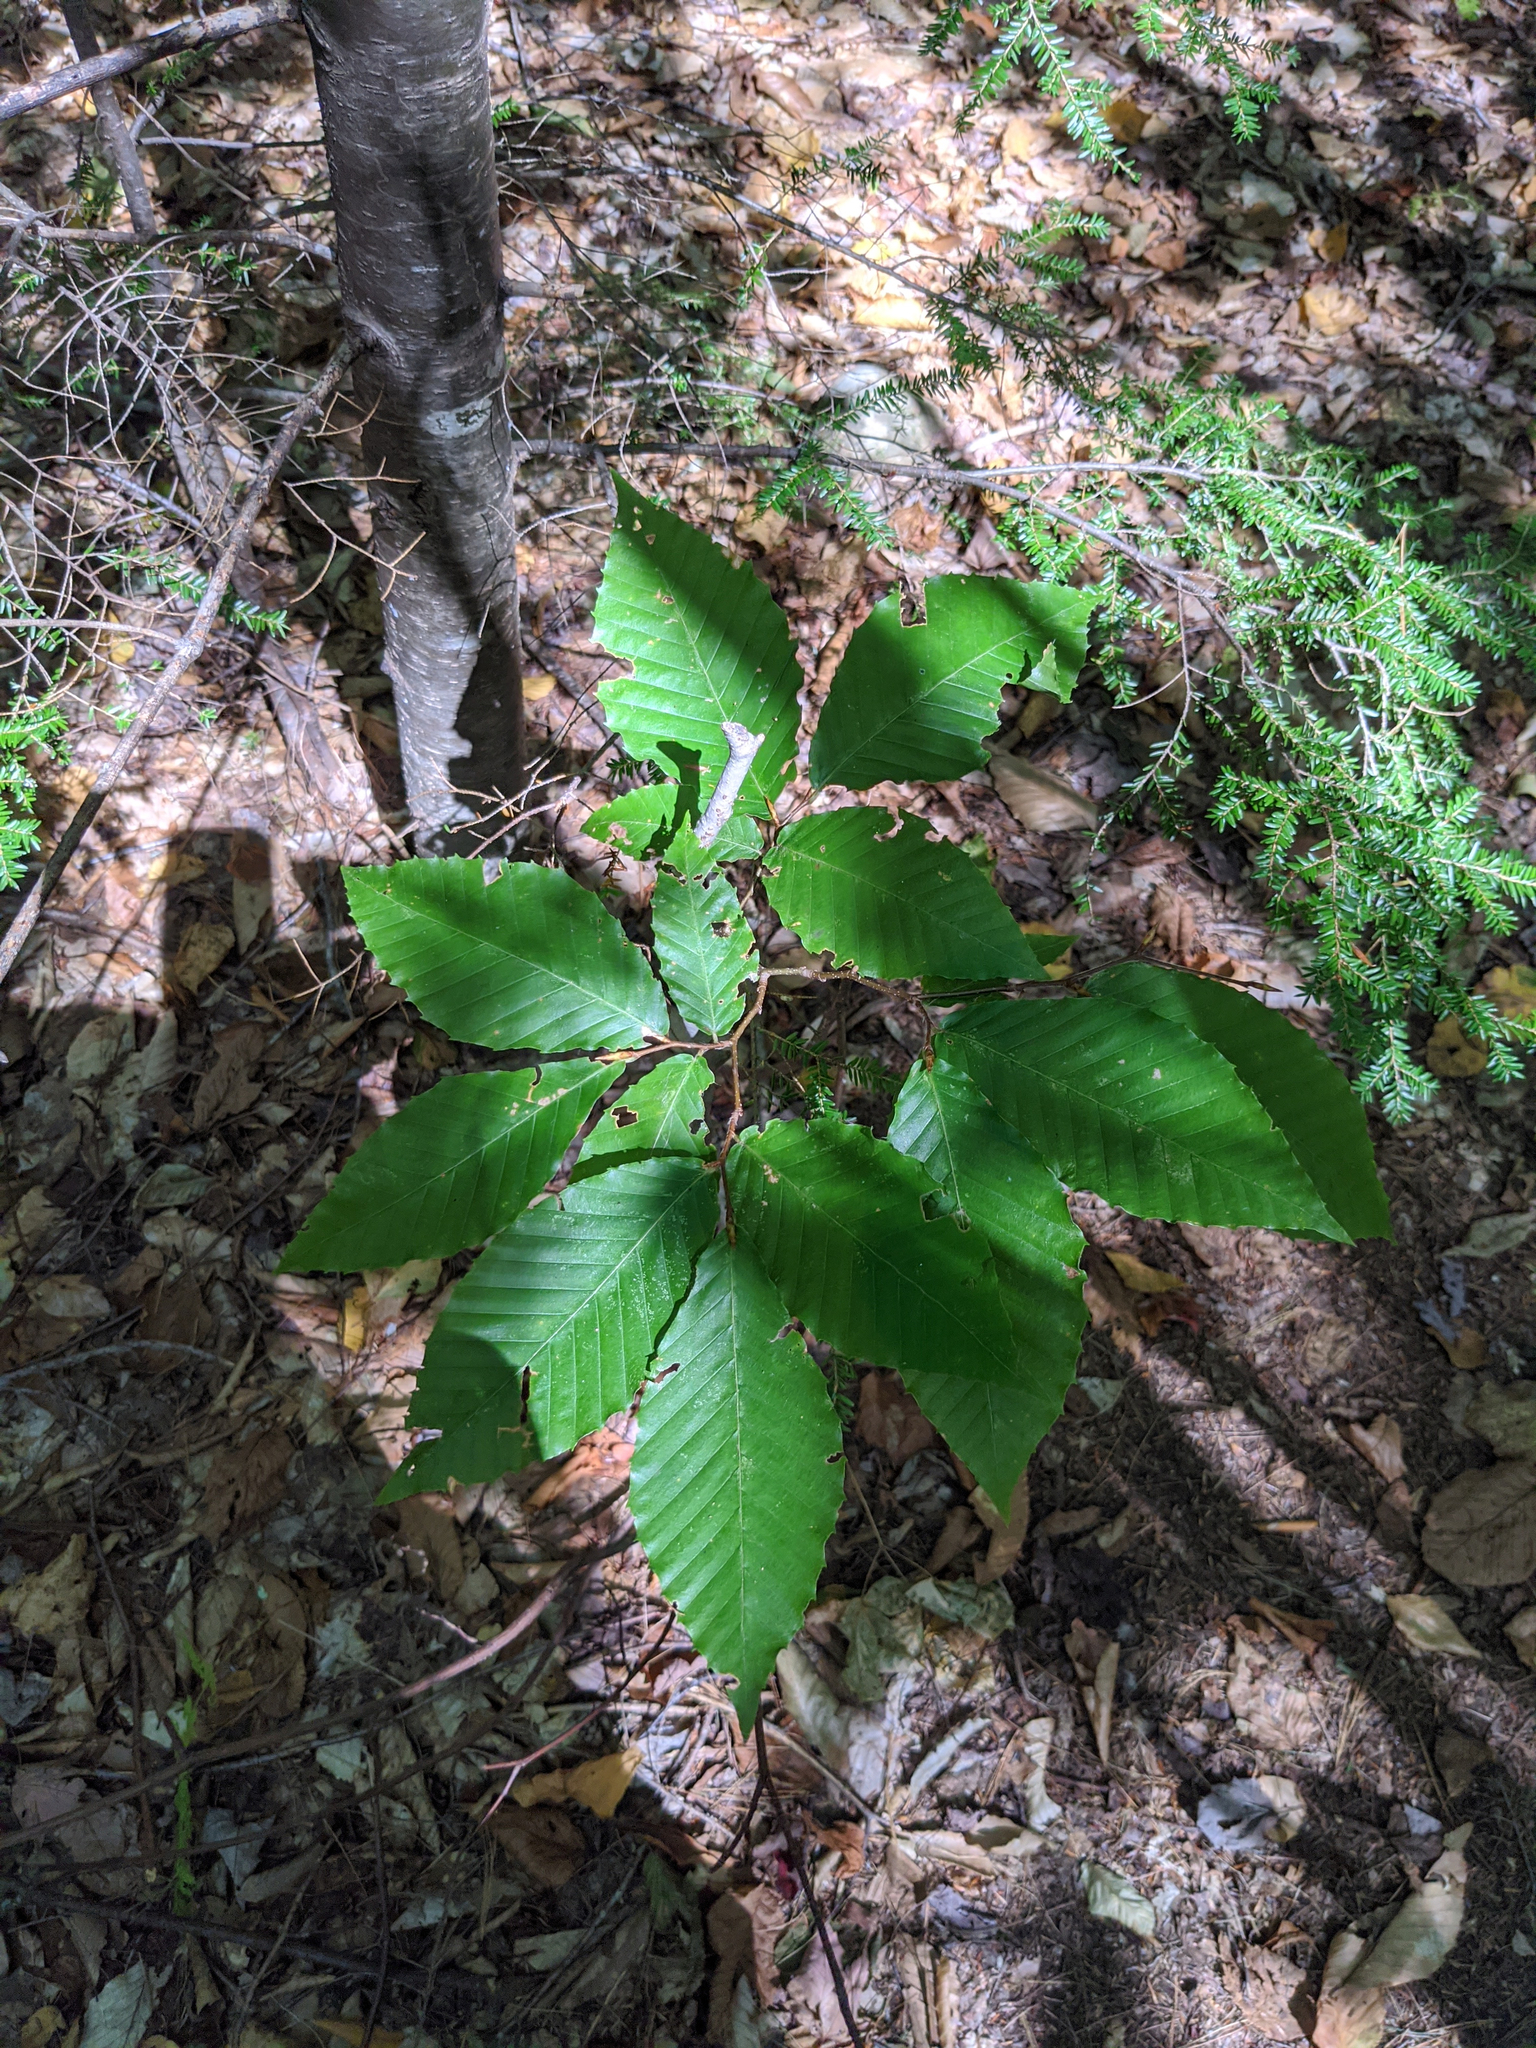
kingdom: Plantae
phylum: Tracheophyta
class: Magnoliopsida
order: Fagales
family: Fagaceae
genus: Fagus
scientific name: Fagus grandifolia
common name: American beech
